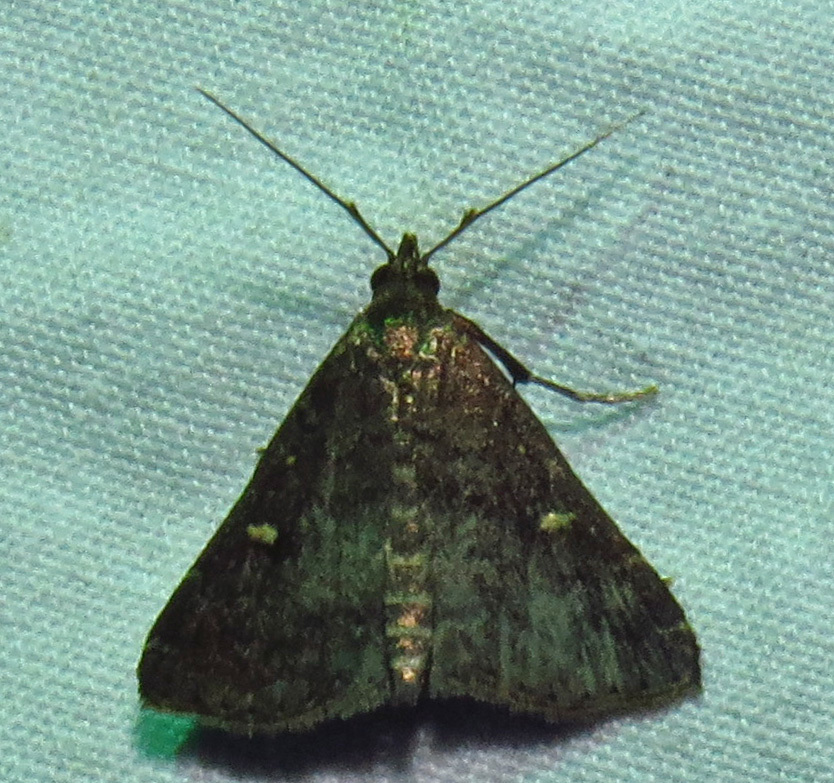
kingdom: Animalia
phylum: Arthropoda
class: Insecta
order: Lepidoptera
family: Erebidae
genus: Tetanolita
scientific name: Tetanolita mynesalis
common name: Smoky tetanolita moth
